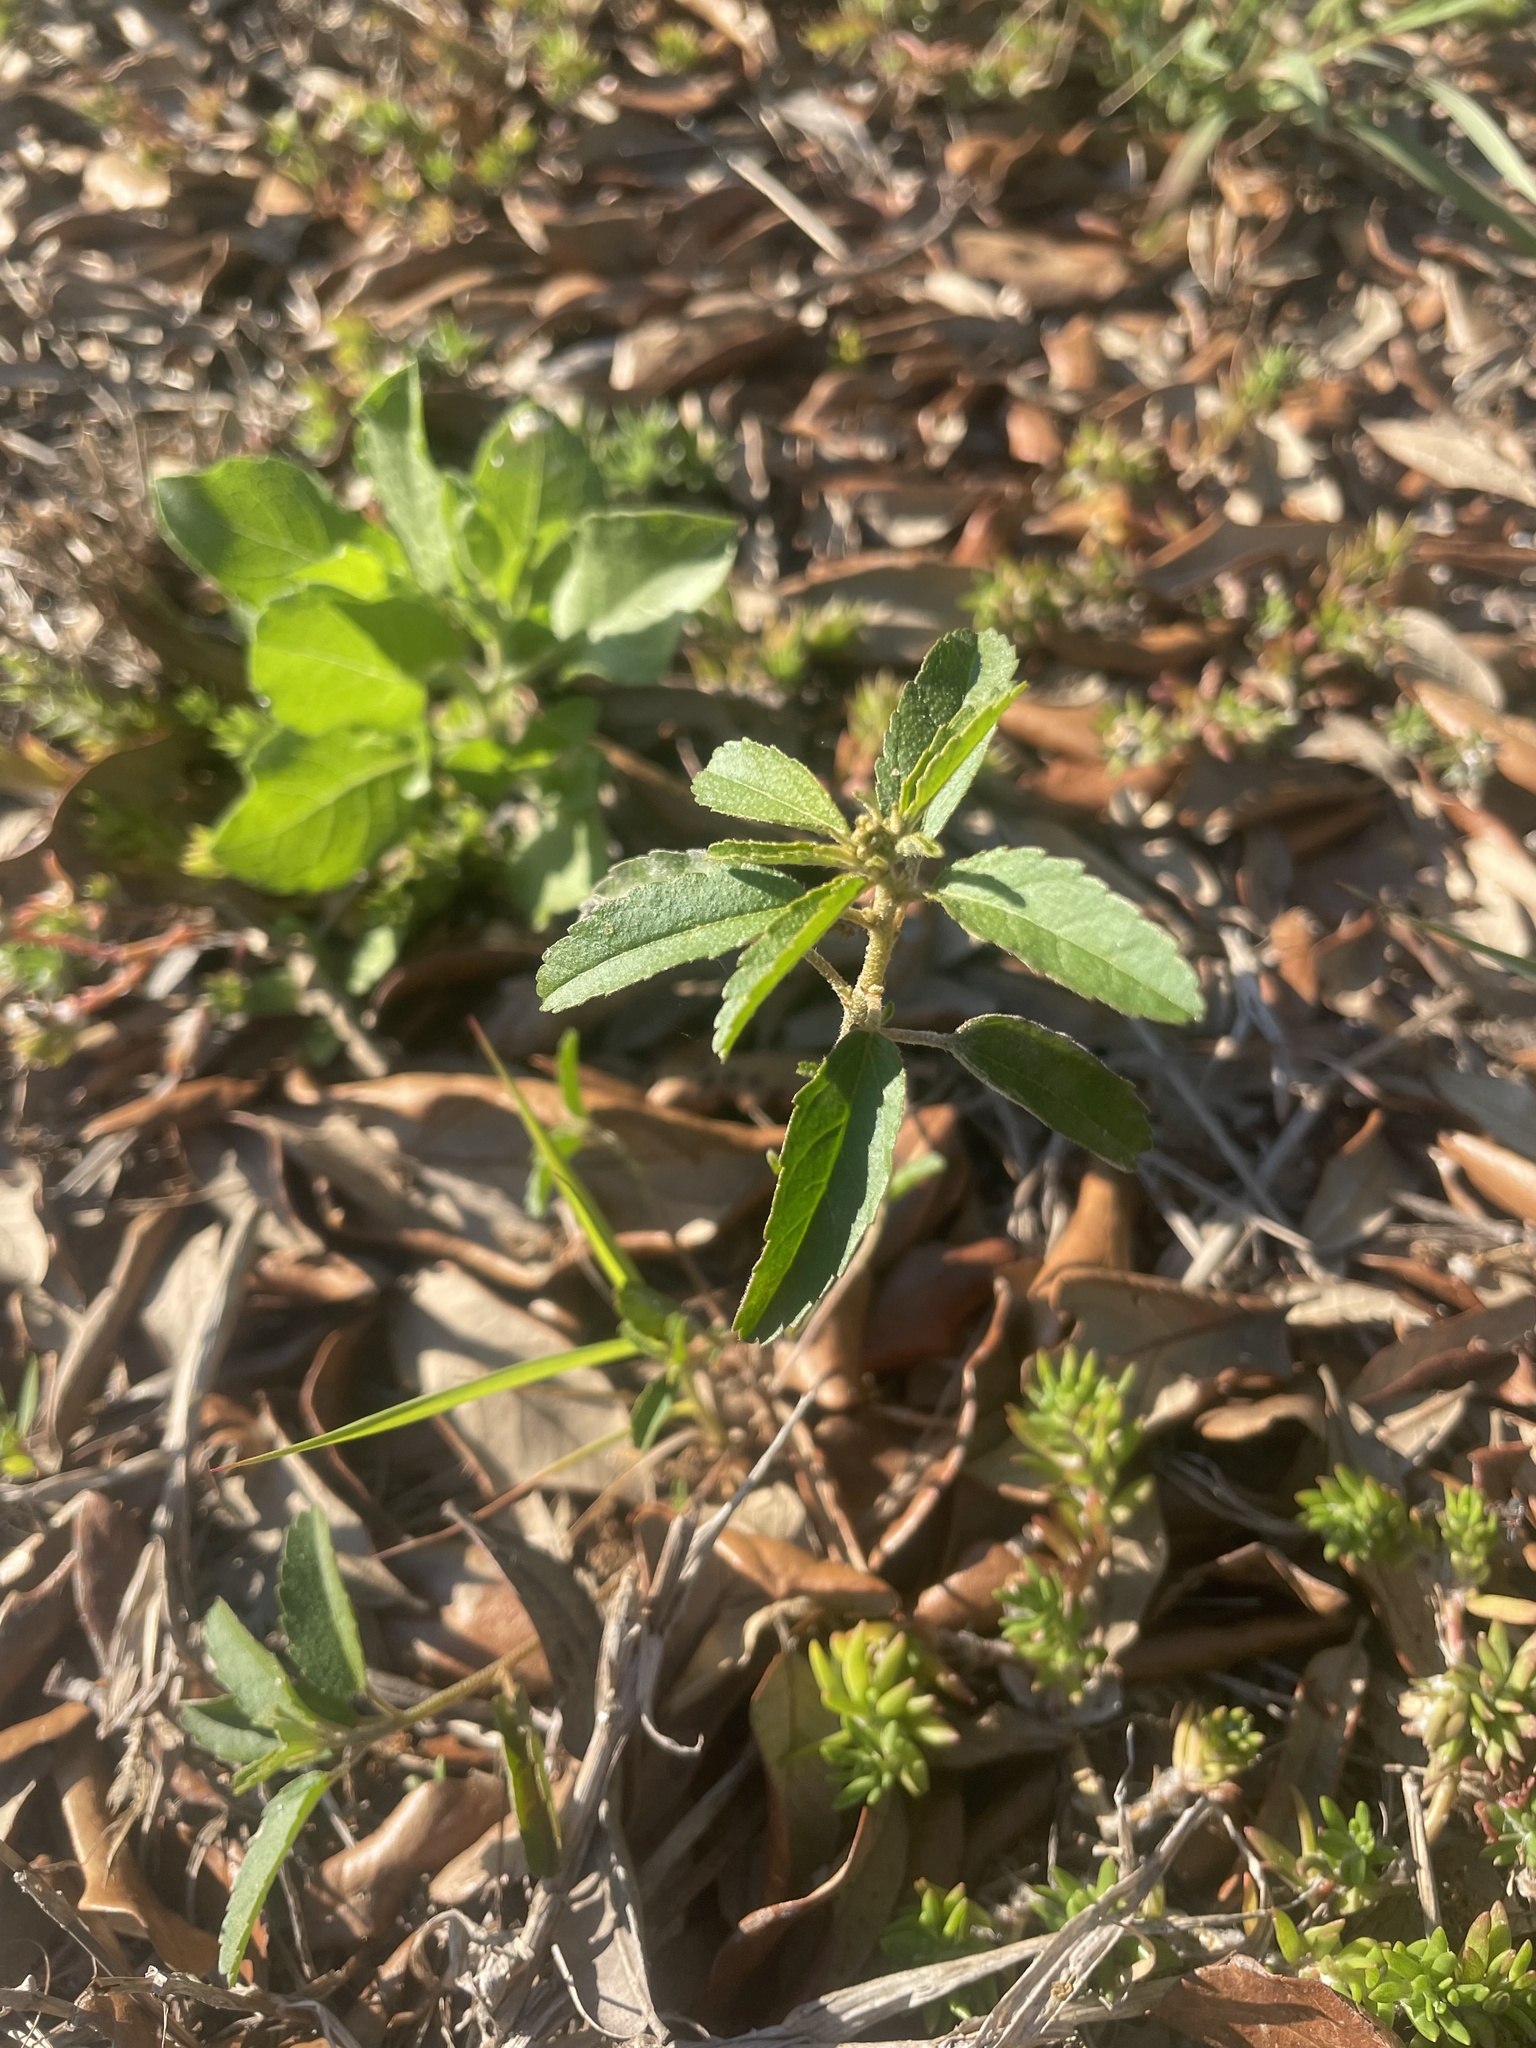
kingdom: Plantae
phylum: Tracheophyta
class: Magnoliopsida
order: Malpighiales
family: Euphorbiaceae
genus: Croton
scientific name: Croton glandulosus
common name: Tropic croton
